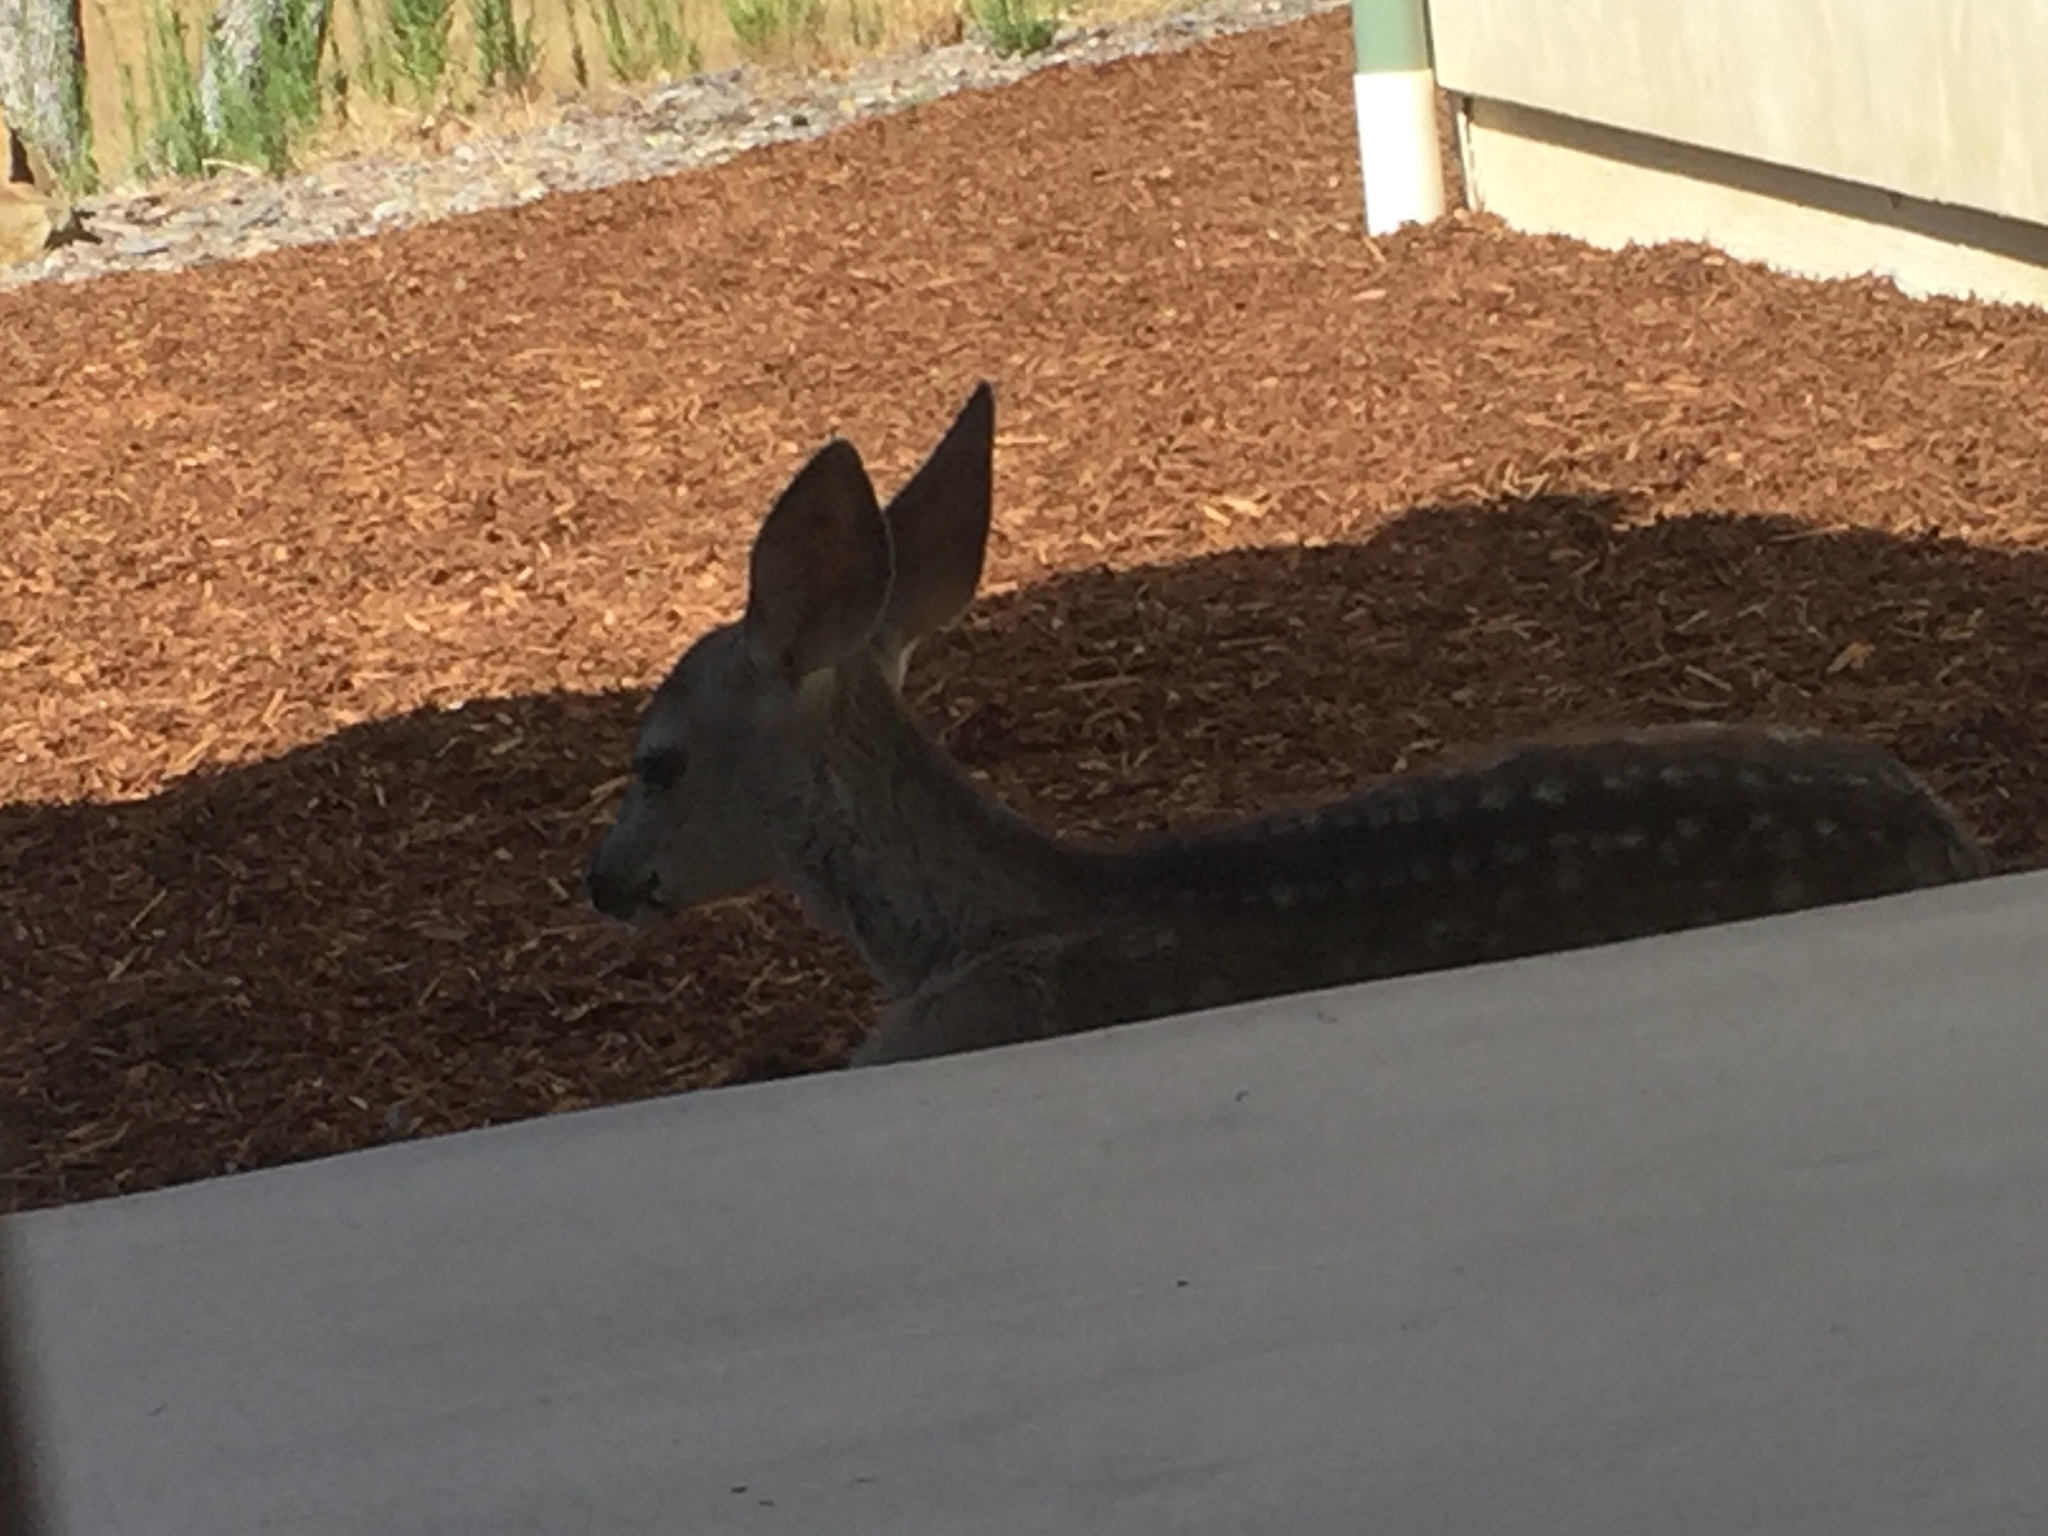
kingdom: Animalia
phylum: Chordata
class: Mammalia
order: Artiodactyla
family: Cervidae
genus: Odocoileus
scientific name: Odocoileus hemionus
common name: Mule deer
